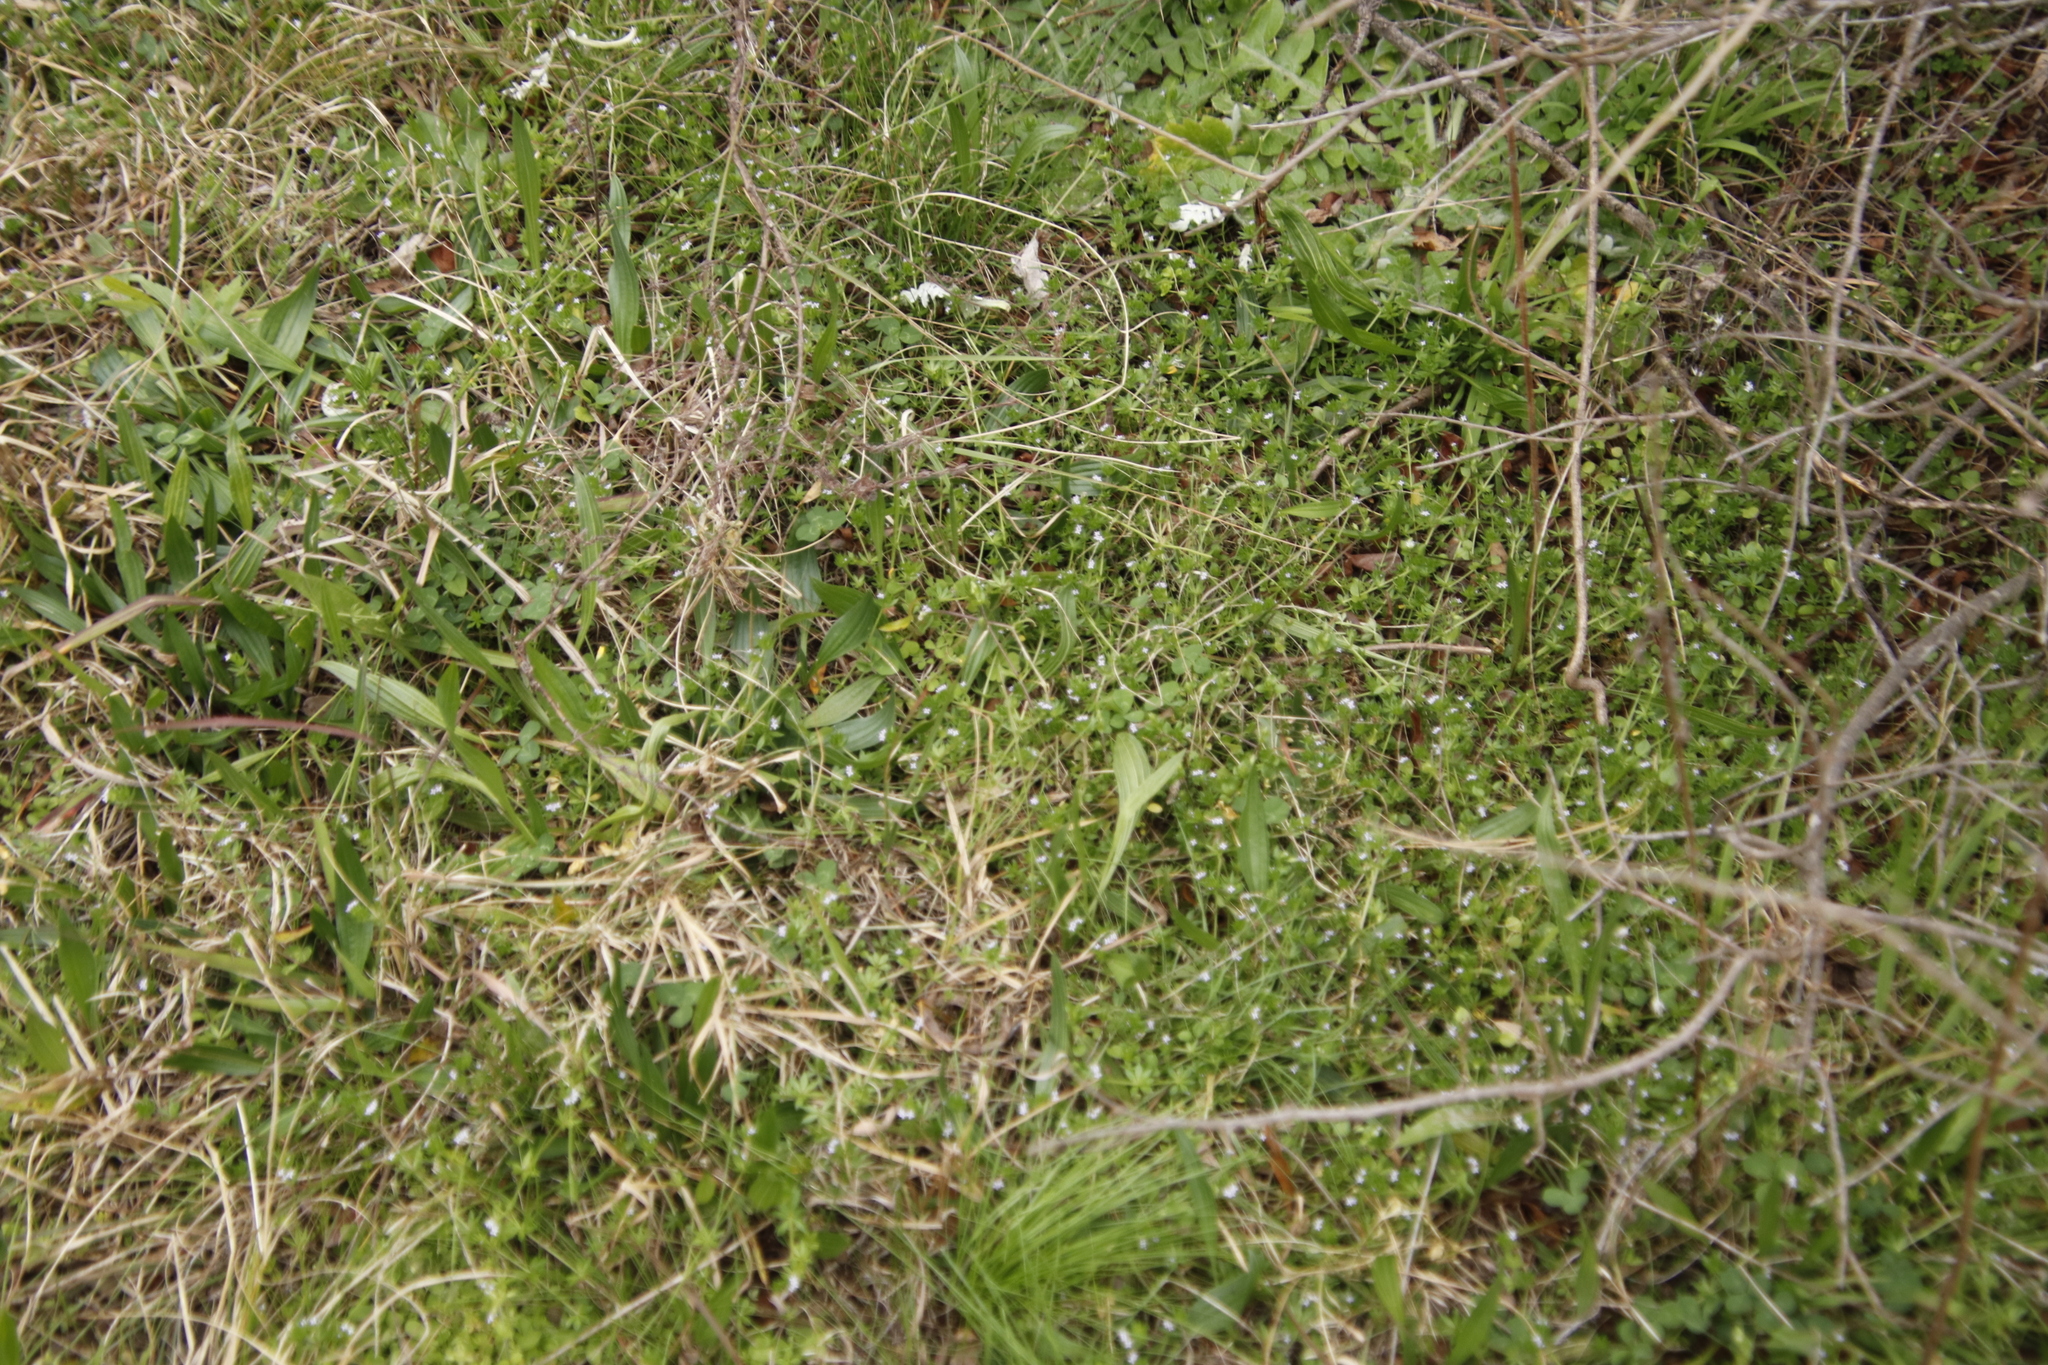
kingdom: Plantae
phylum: Tracheophyta
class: Magnoliopsida
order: Gentianales
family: Rubiaceae
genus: Sherardia
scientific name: Sherardia arvensis
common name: Field madder
